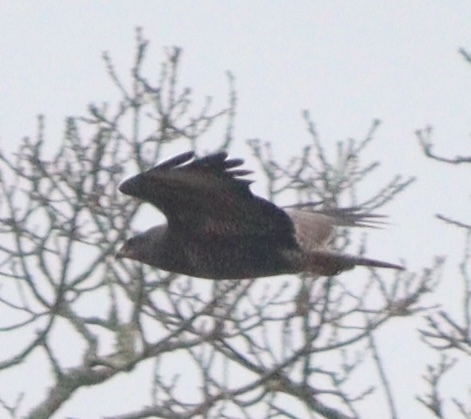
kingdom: Animalia
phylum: Chordata
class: Aves
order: Accipitriformes
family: Accipitridae
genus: Buteo
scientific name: Buteo buteo
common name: Common buzzard
